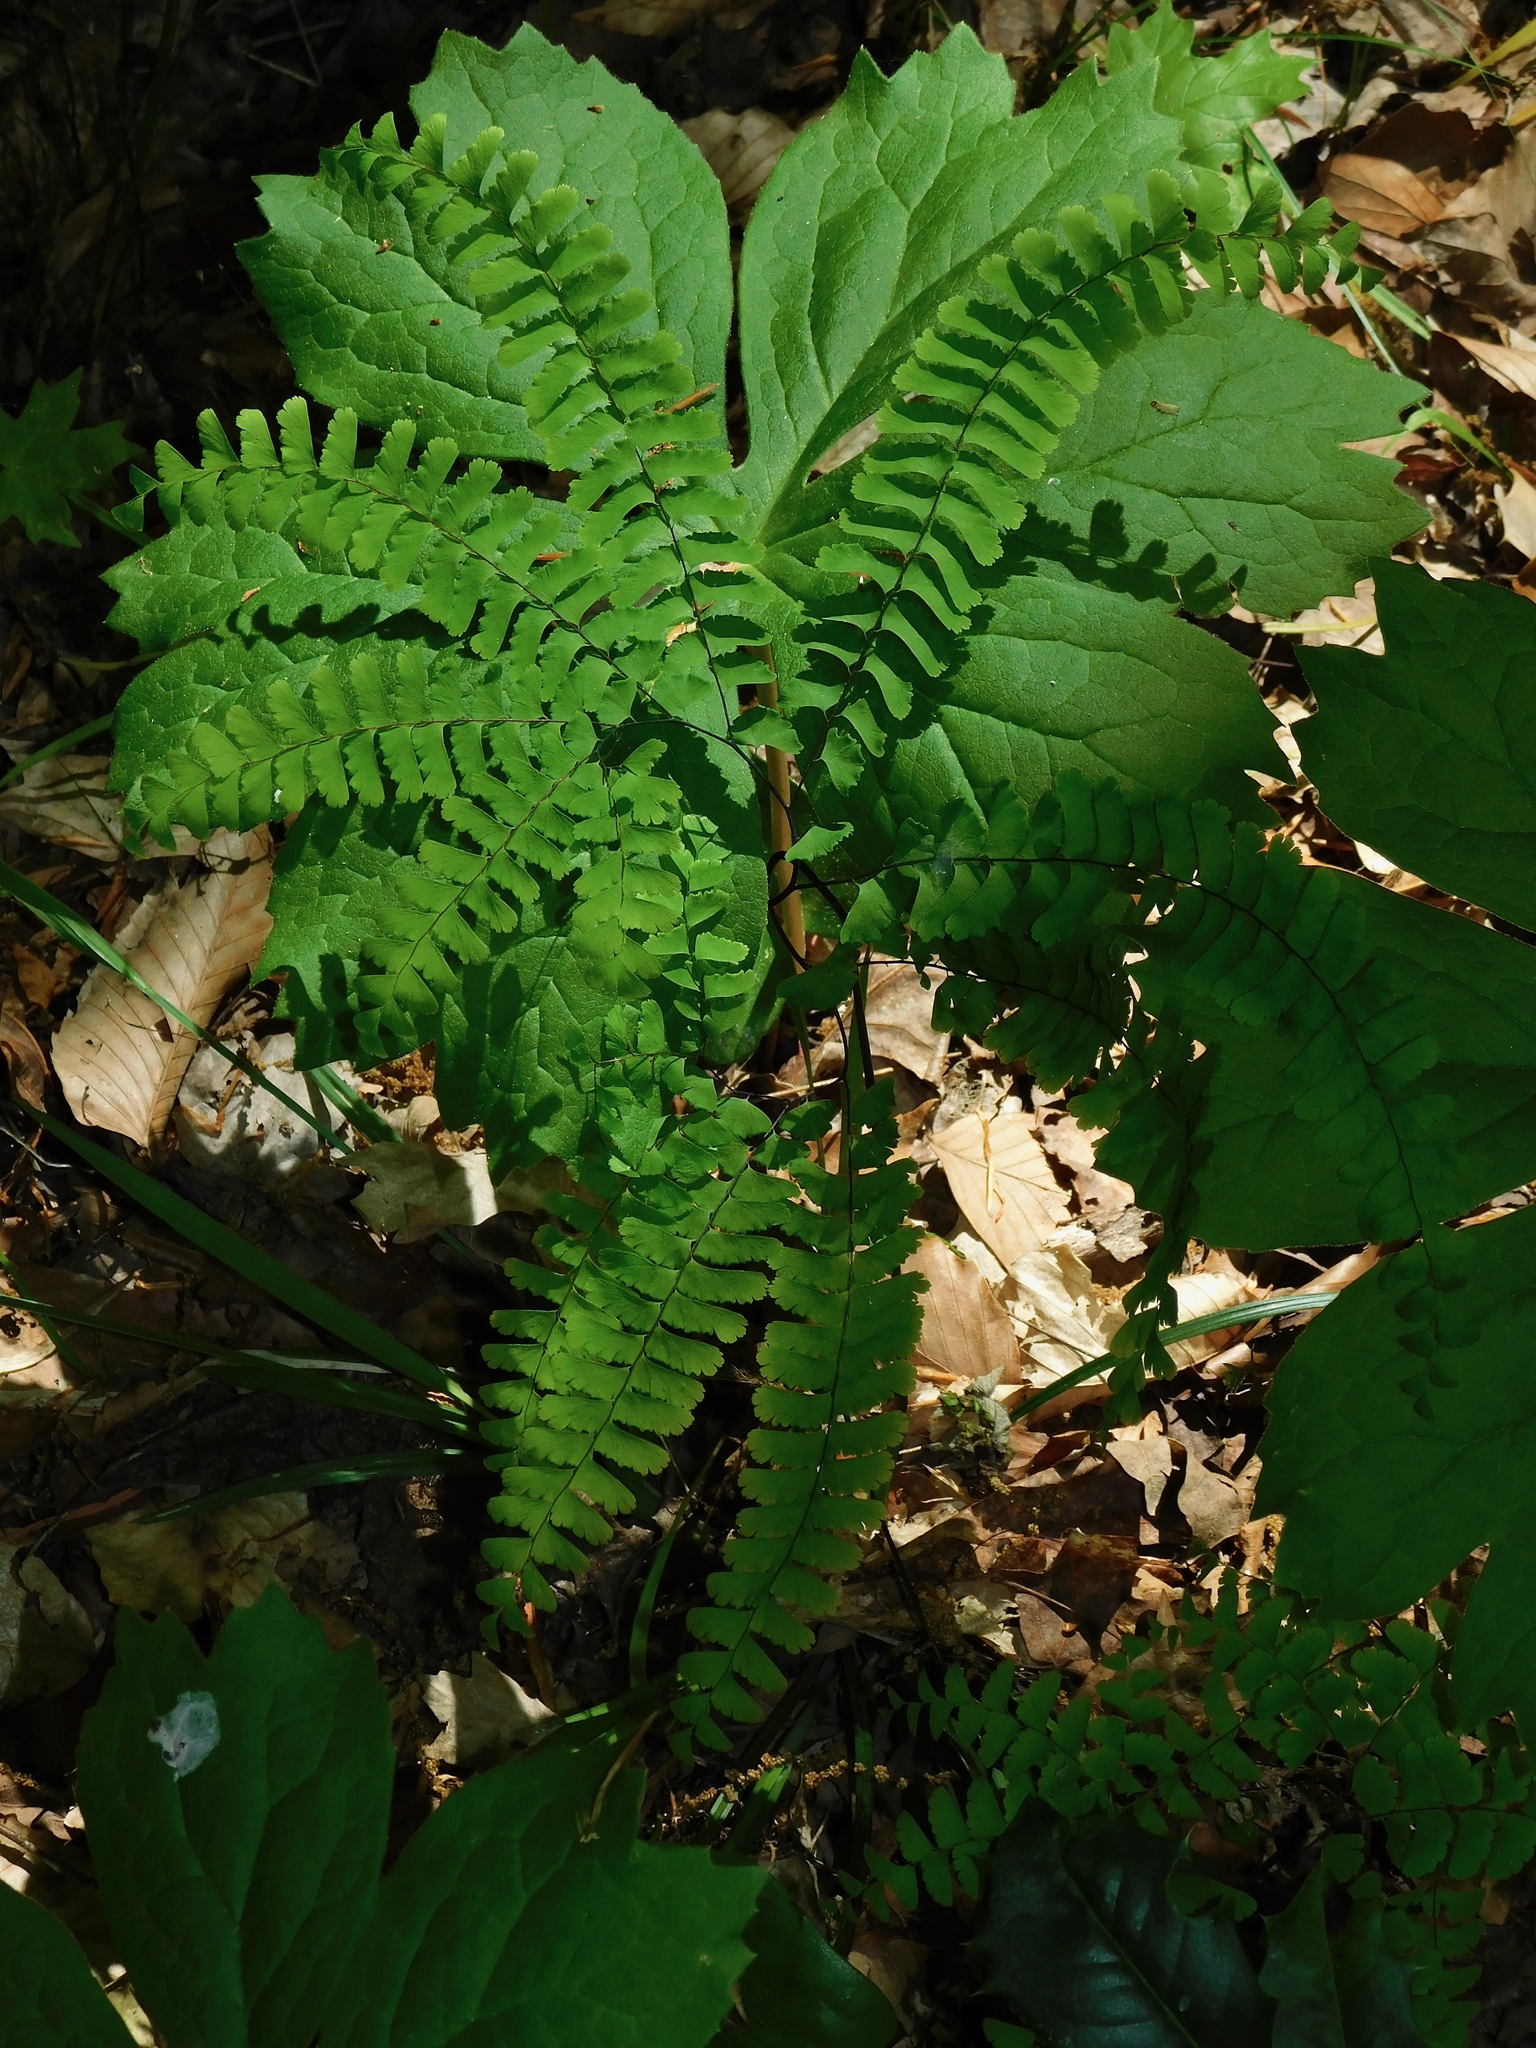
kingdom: Plantae
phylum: Tracheophyta
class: Polypodiopsida
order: Polypodiales
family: Pteridaceae
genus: Adiantum
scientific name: Adiantum pedatum
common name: Five-finger fern
